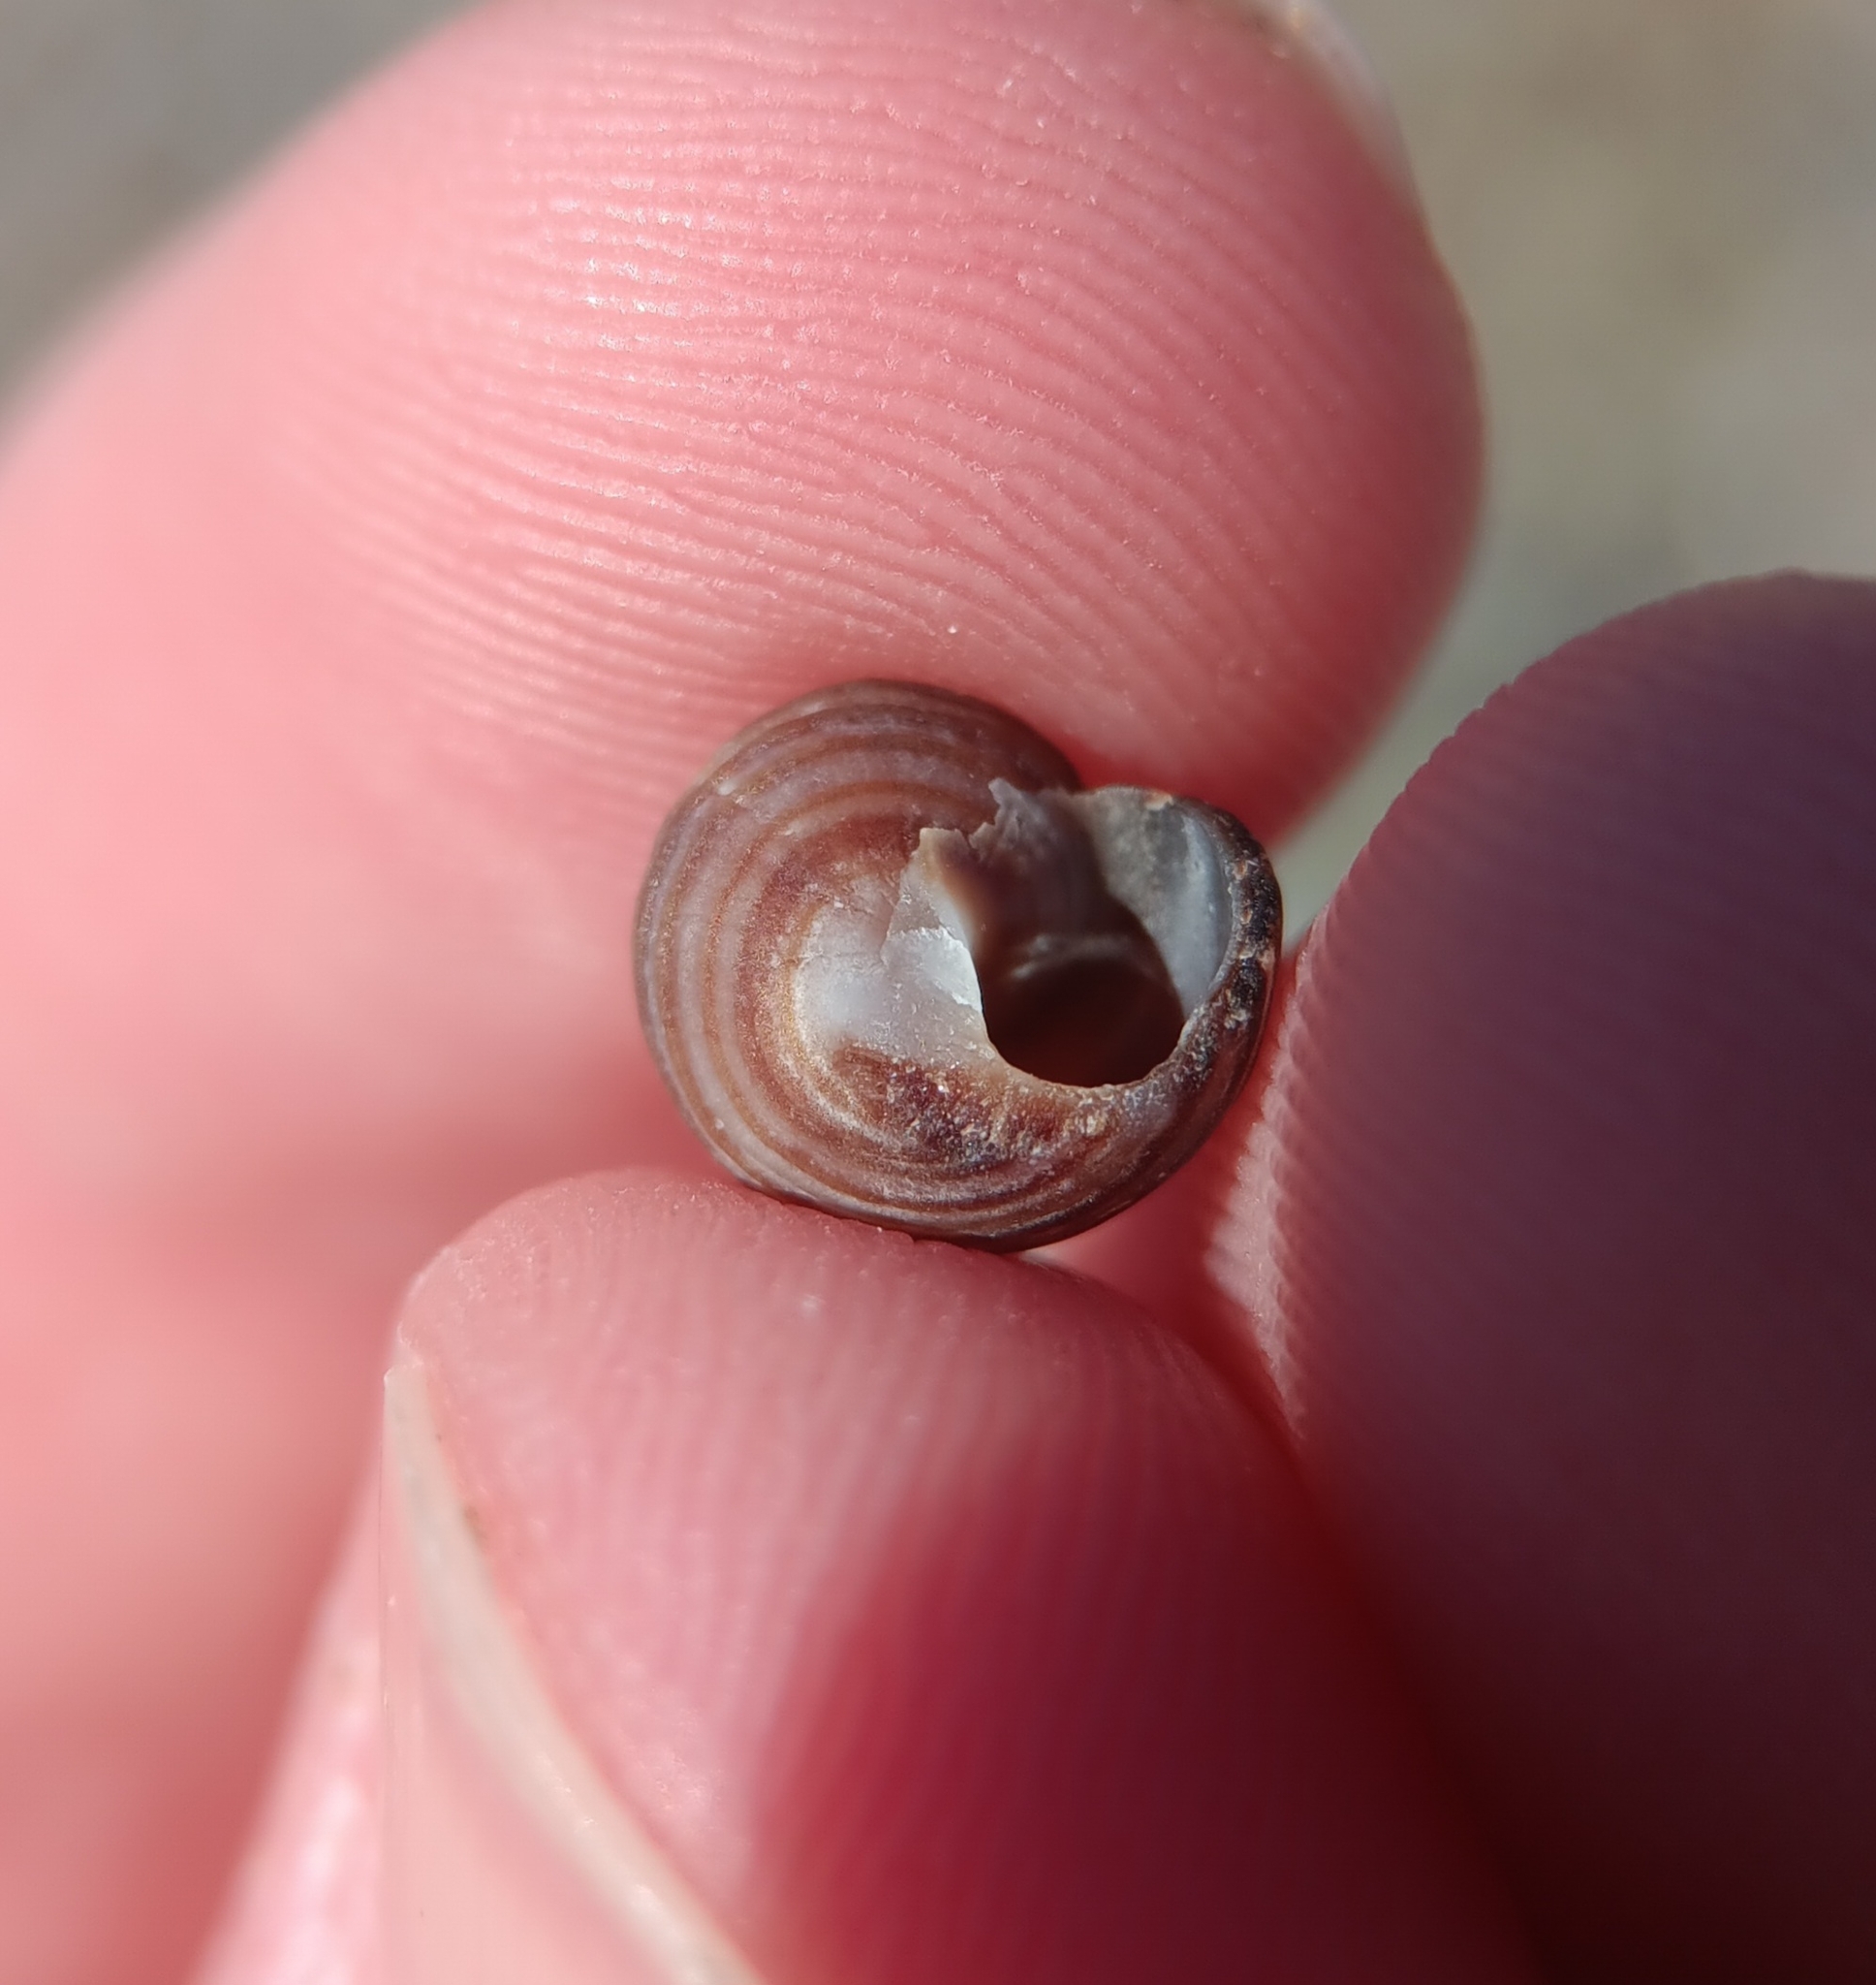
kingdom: Animalia
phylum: Mollusca
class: Gastropoda
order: Littorinimorpha
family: Littorinidae
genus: Littorina
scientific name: Littorina littorea
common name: Common periwinkle
